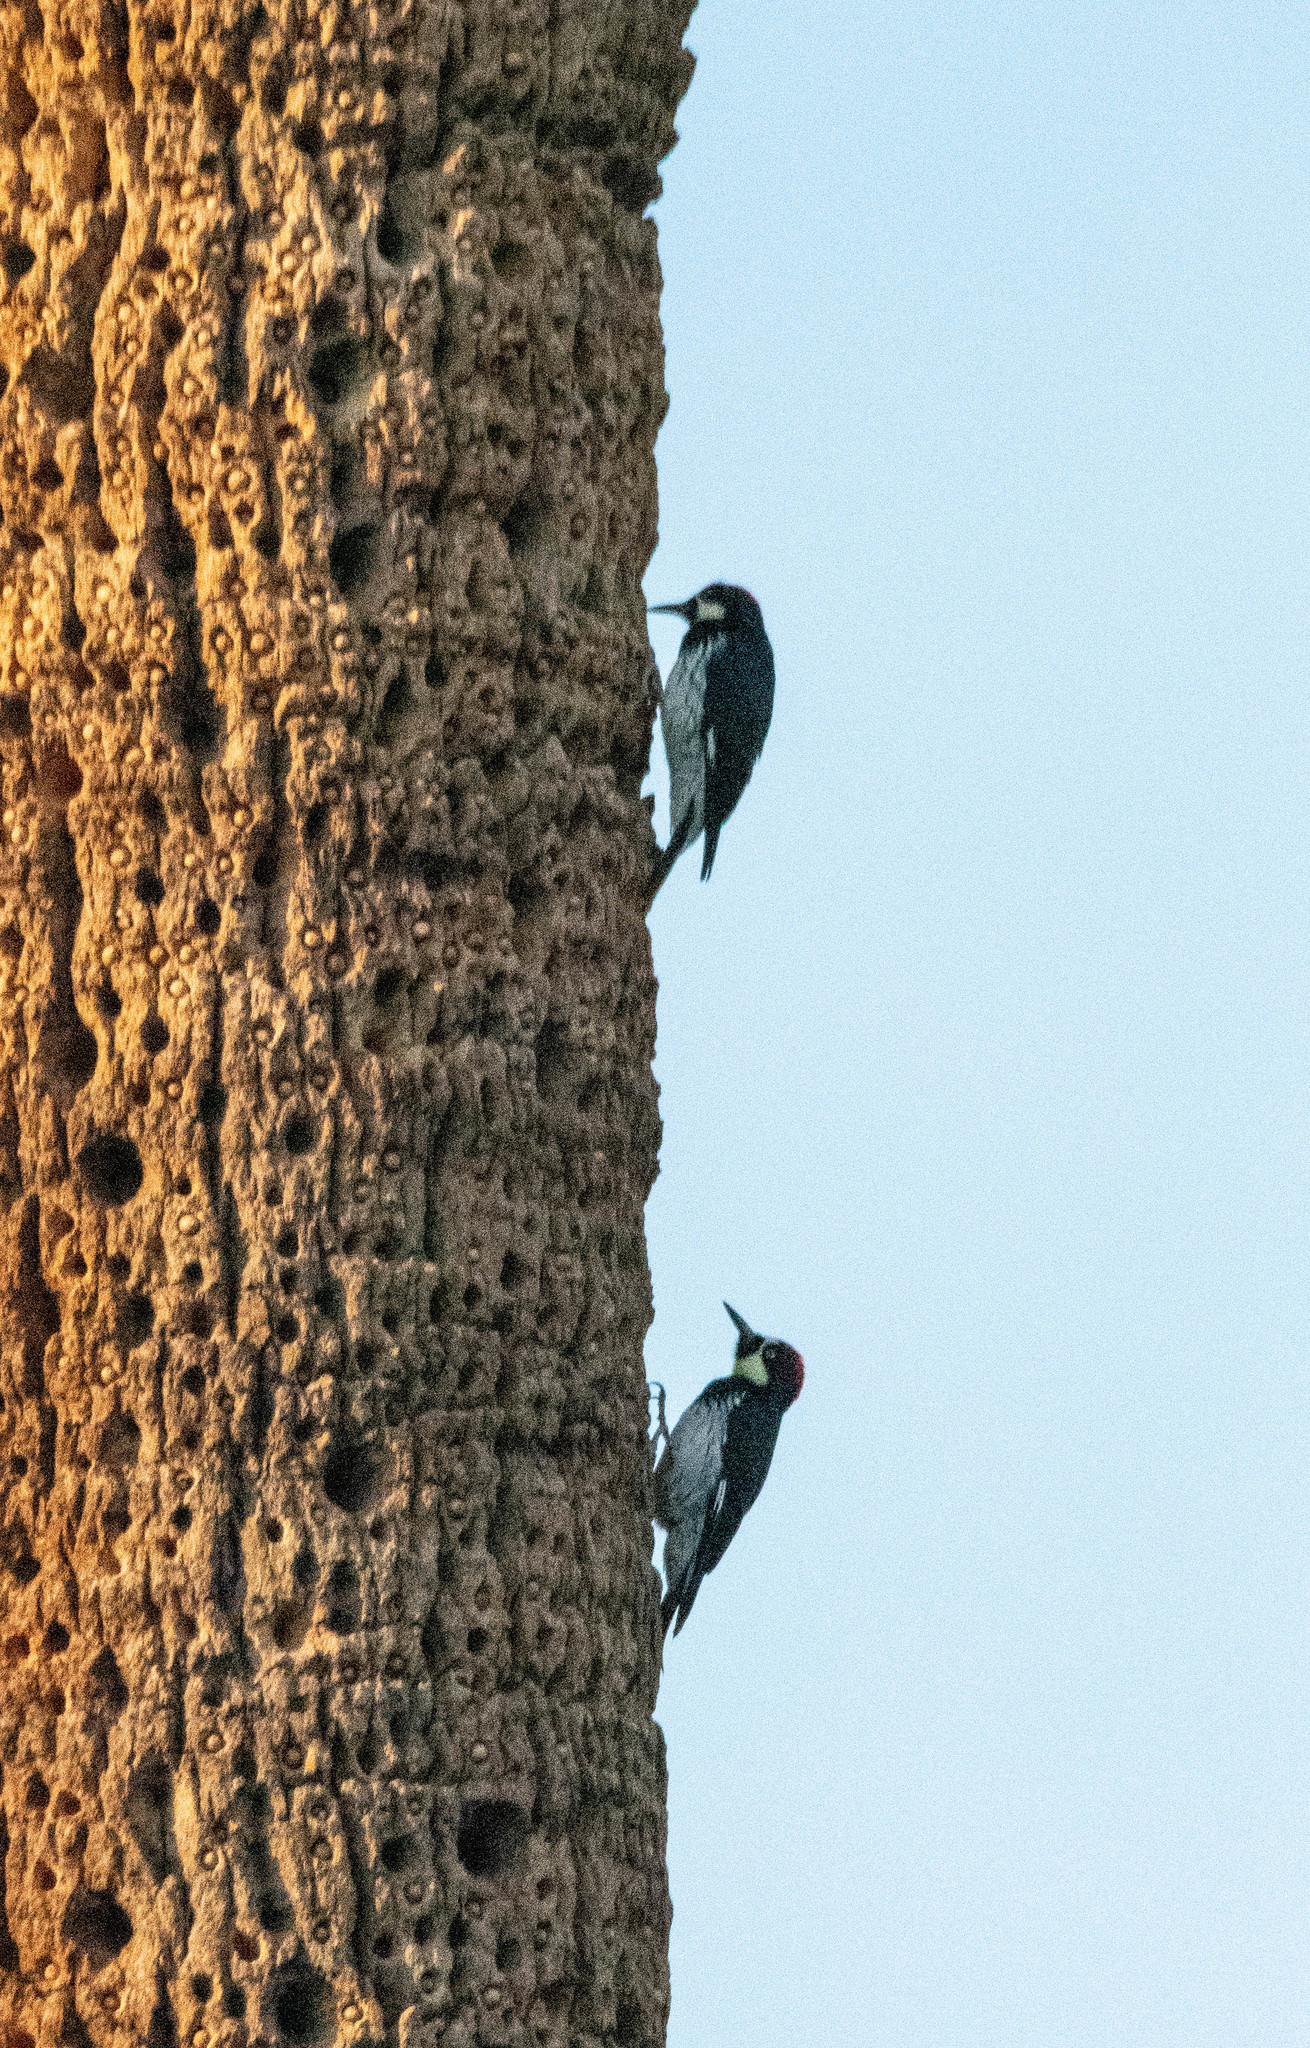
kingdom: Animalia
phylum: Chordata
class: Aves
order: Piciformes
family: Picidae
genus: Melanerpes
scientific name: Melanerpes formicivorus
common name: Acorn woodpecker
